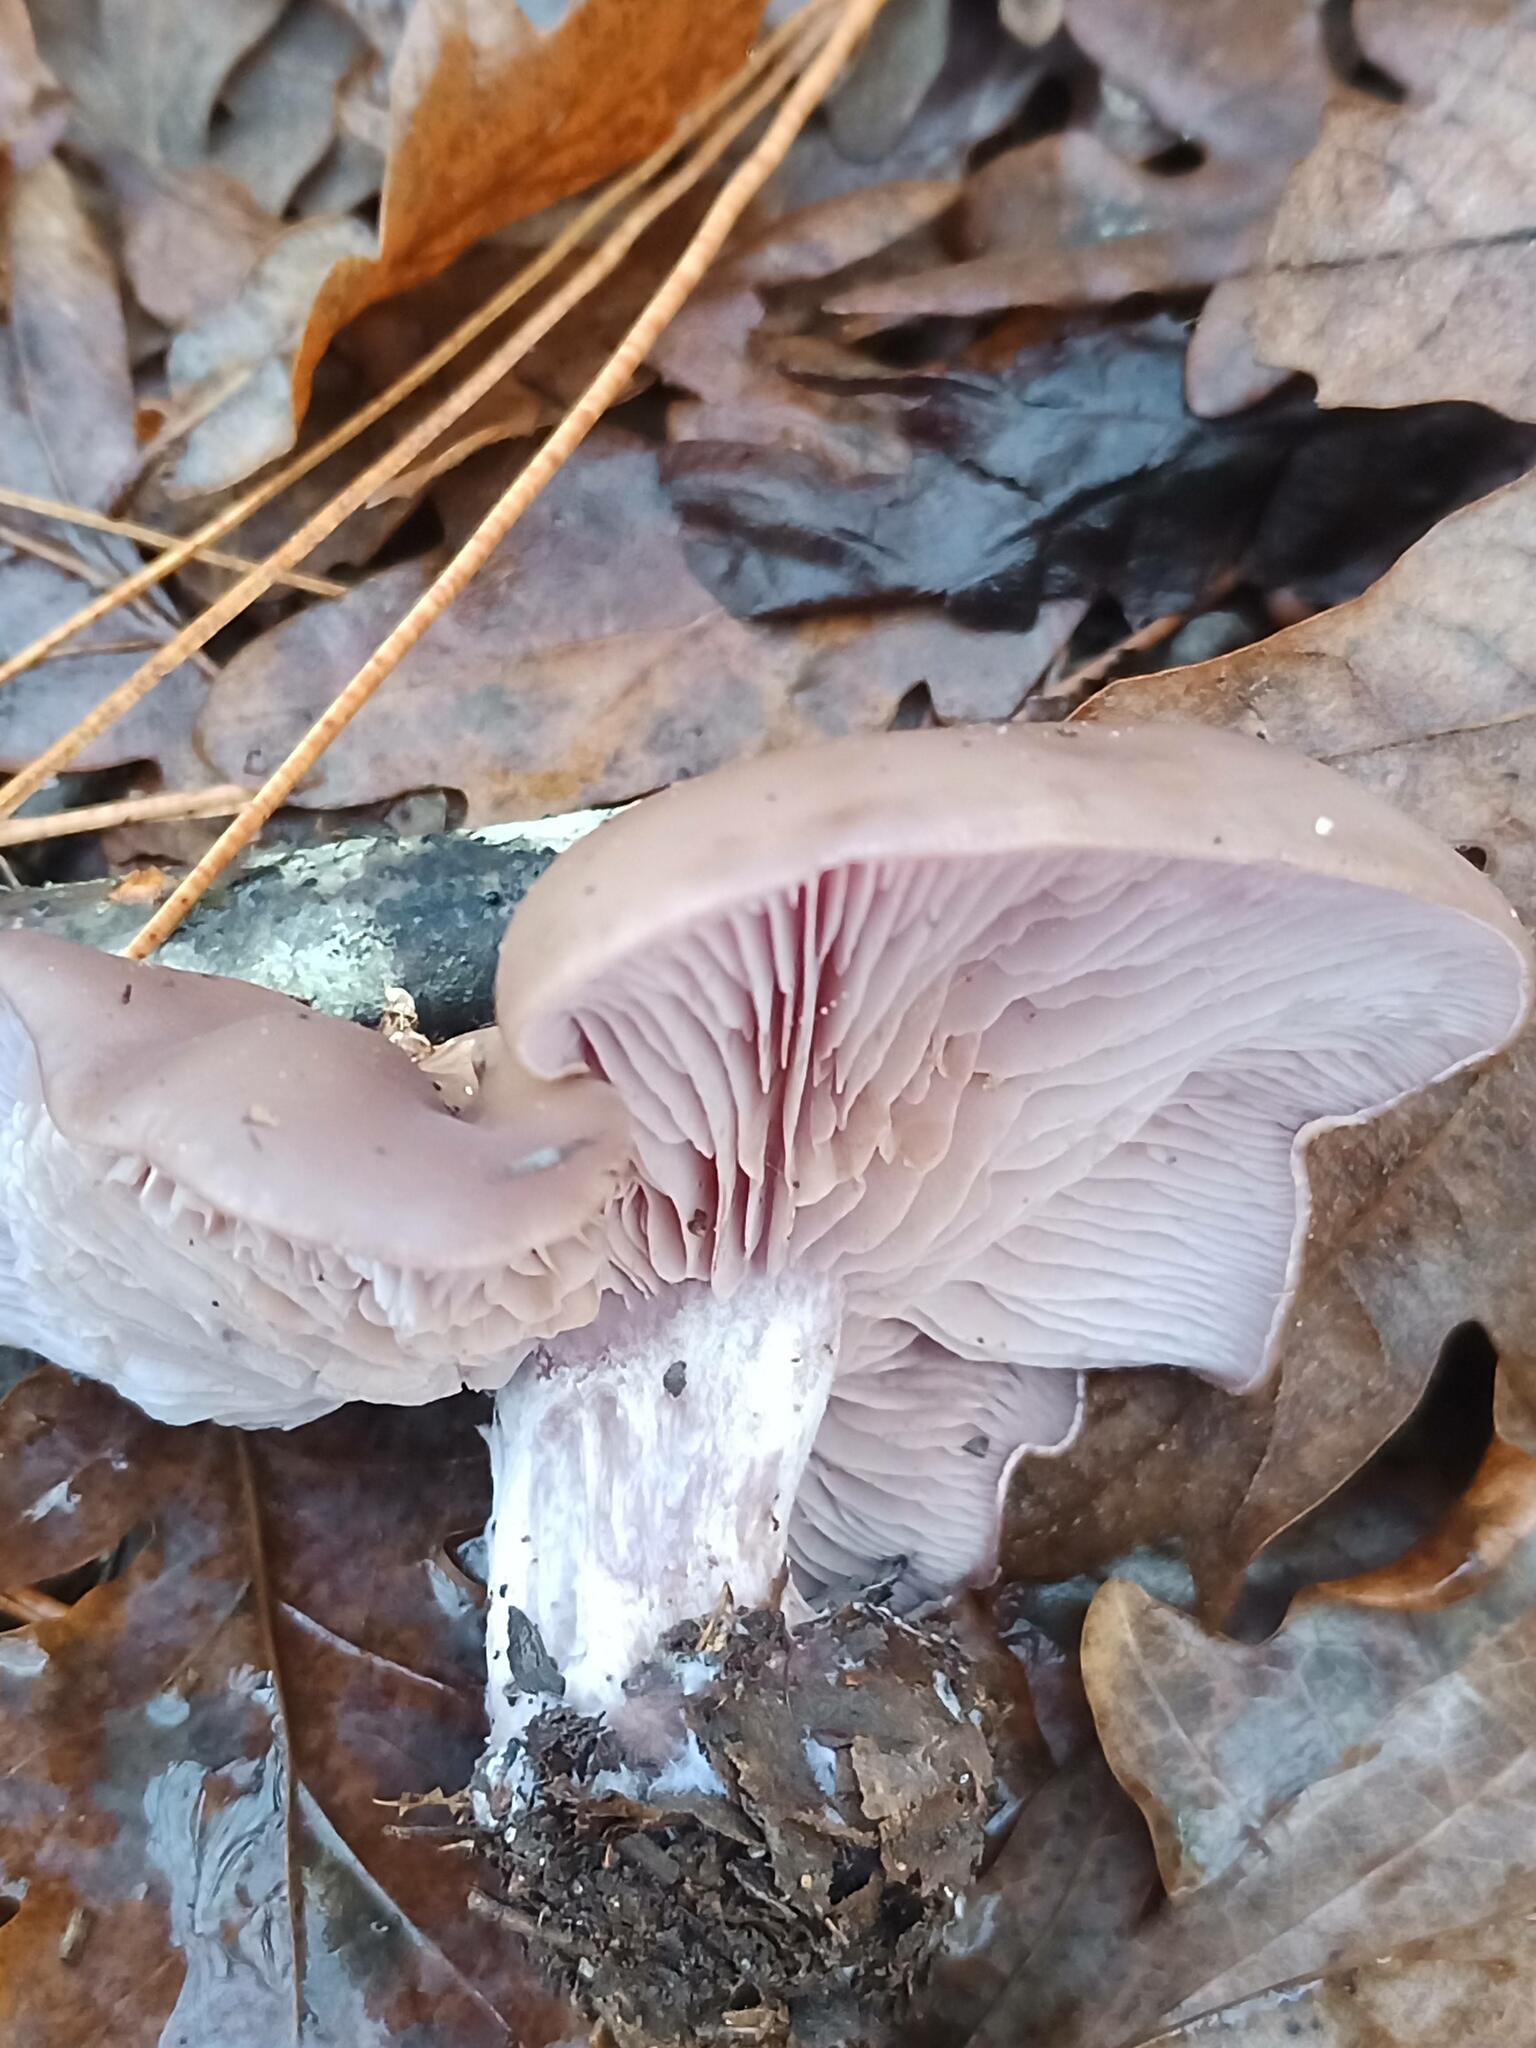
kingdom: Fungi
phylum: Basidiomycota
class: Agaricomycetes
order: Agaricales
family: Tricholomataceae
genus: Collybia
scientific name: Collybia
